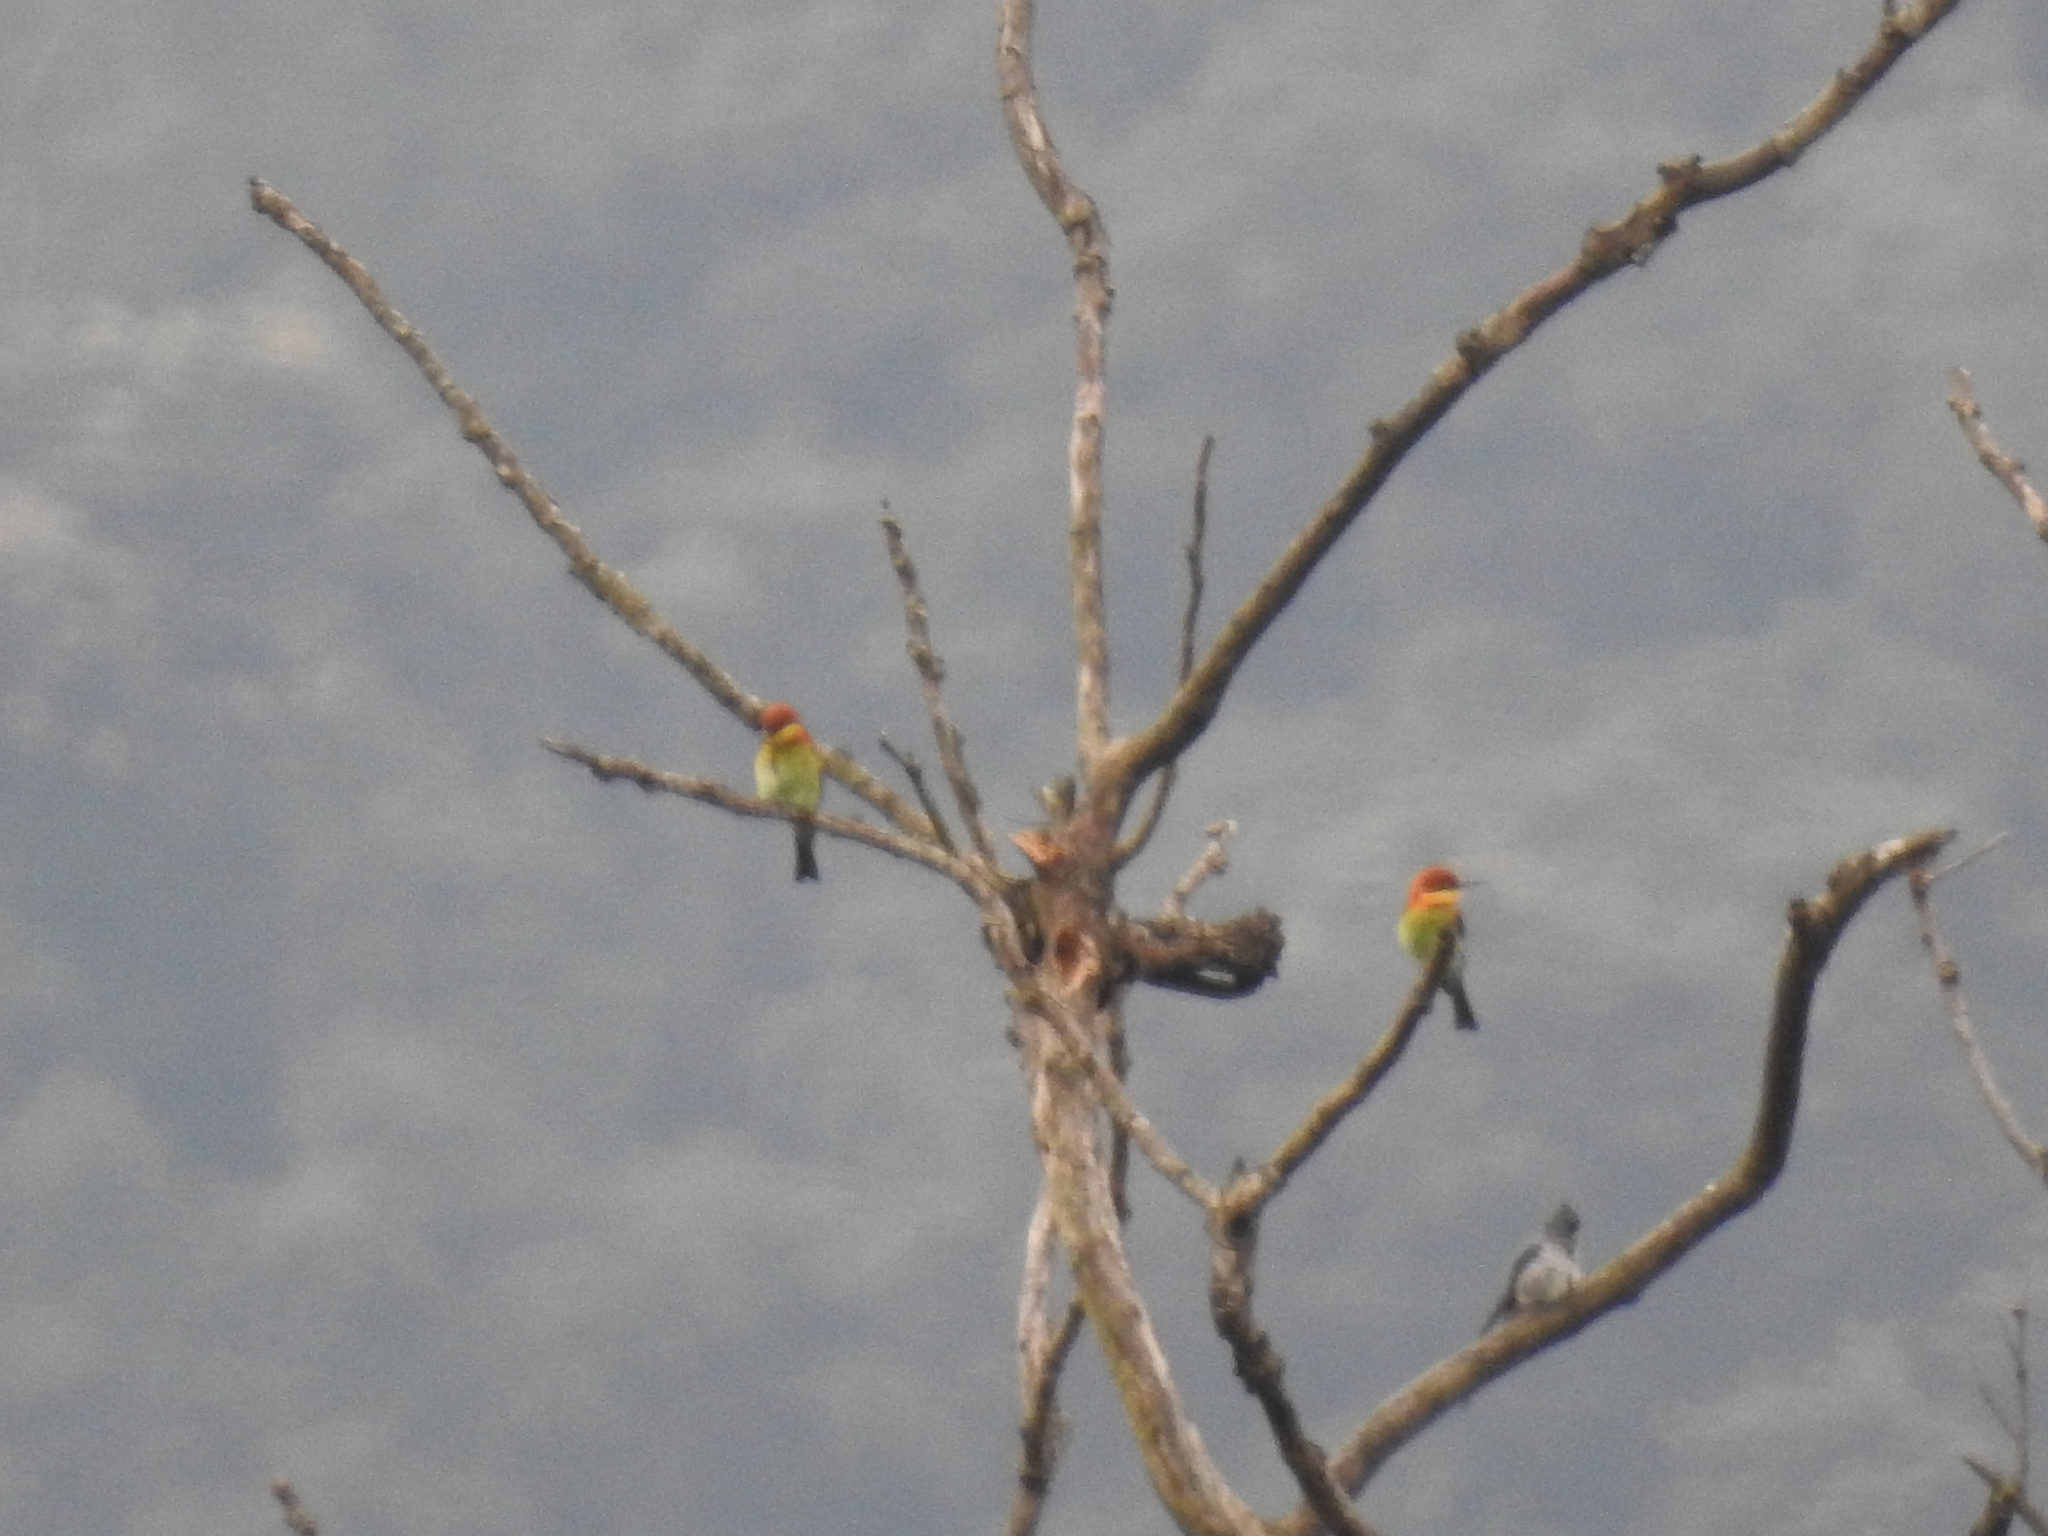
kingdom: Animalia
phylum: Chordata
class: Aves
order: Coraciiformes
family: Meropidae
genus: Merops
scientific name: Merops leschenaulti
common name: Chestnut-headed bee-eater
